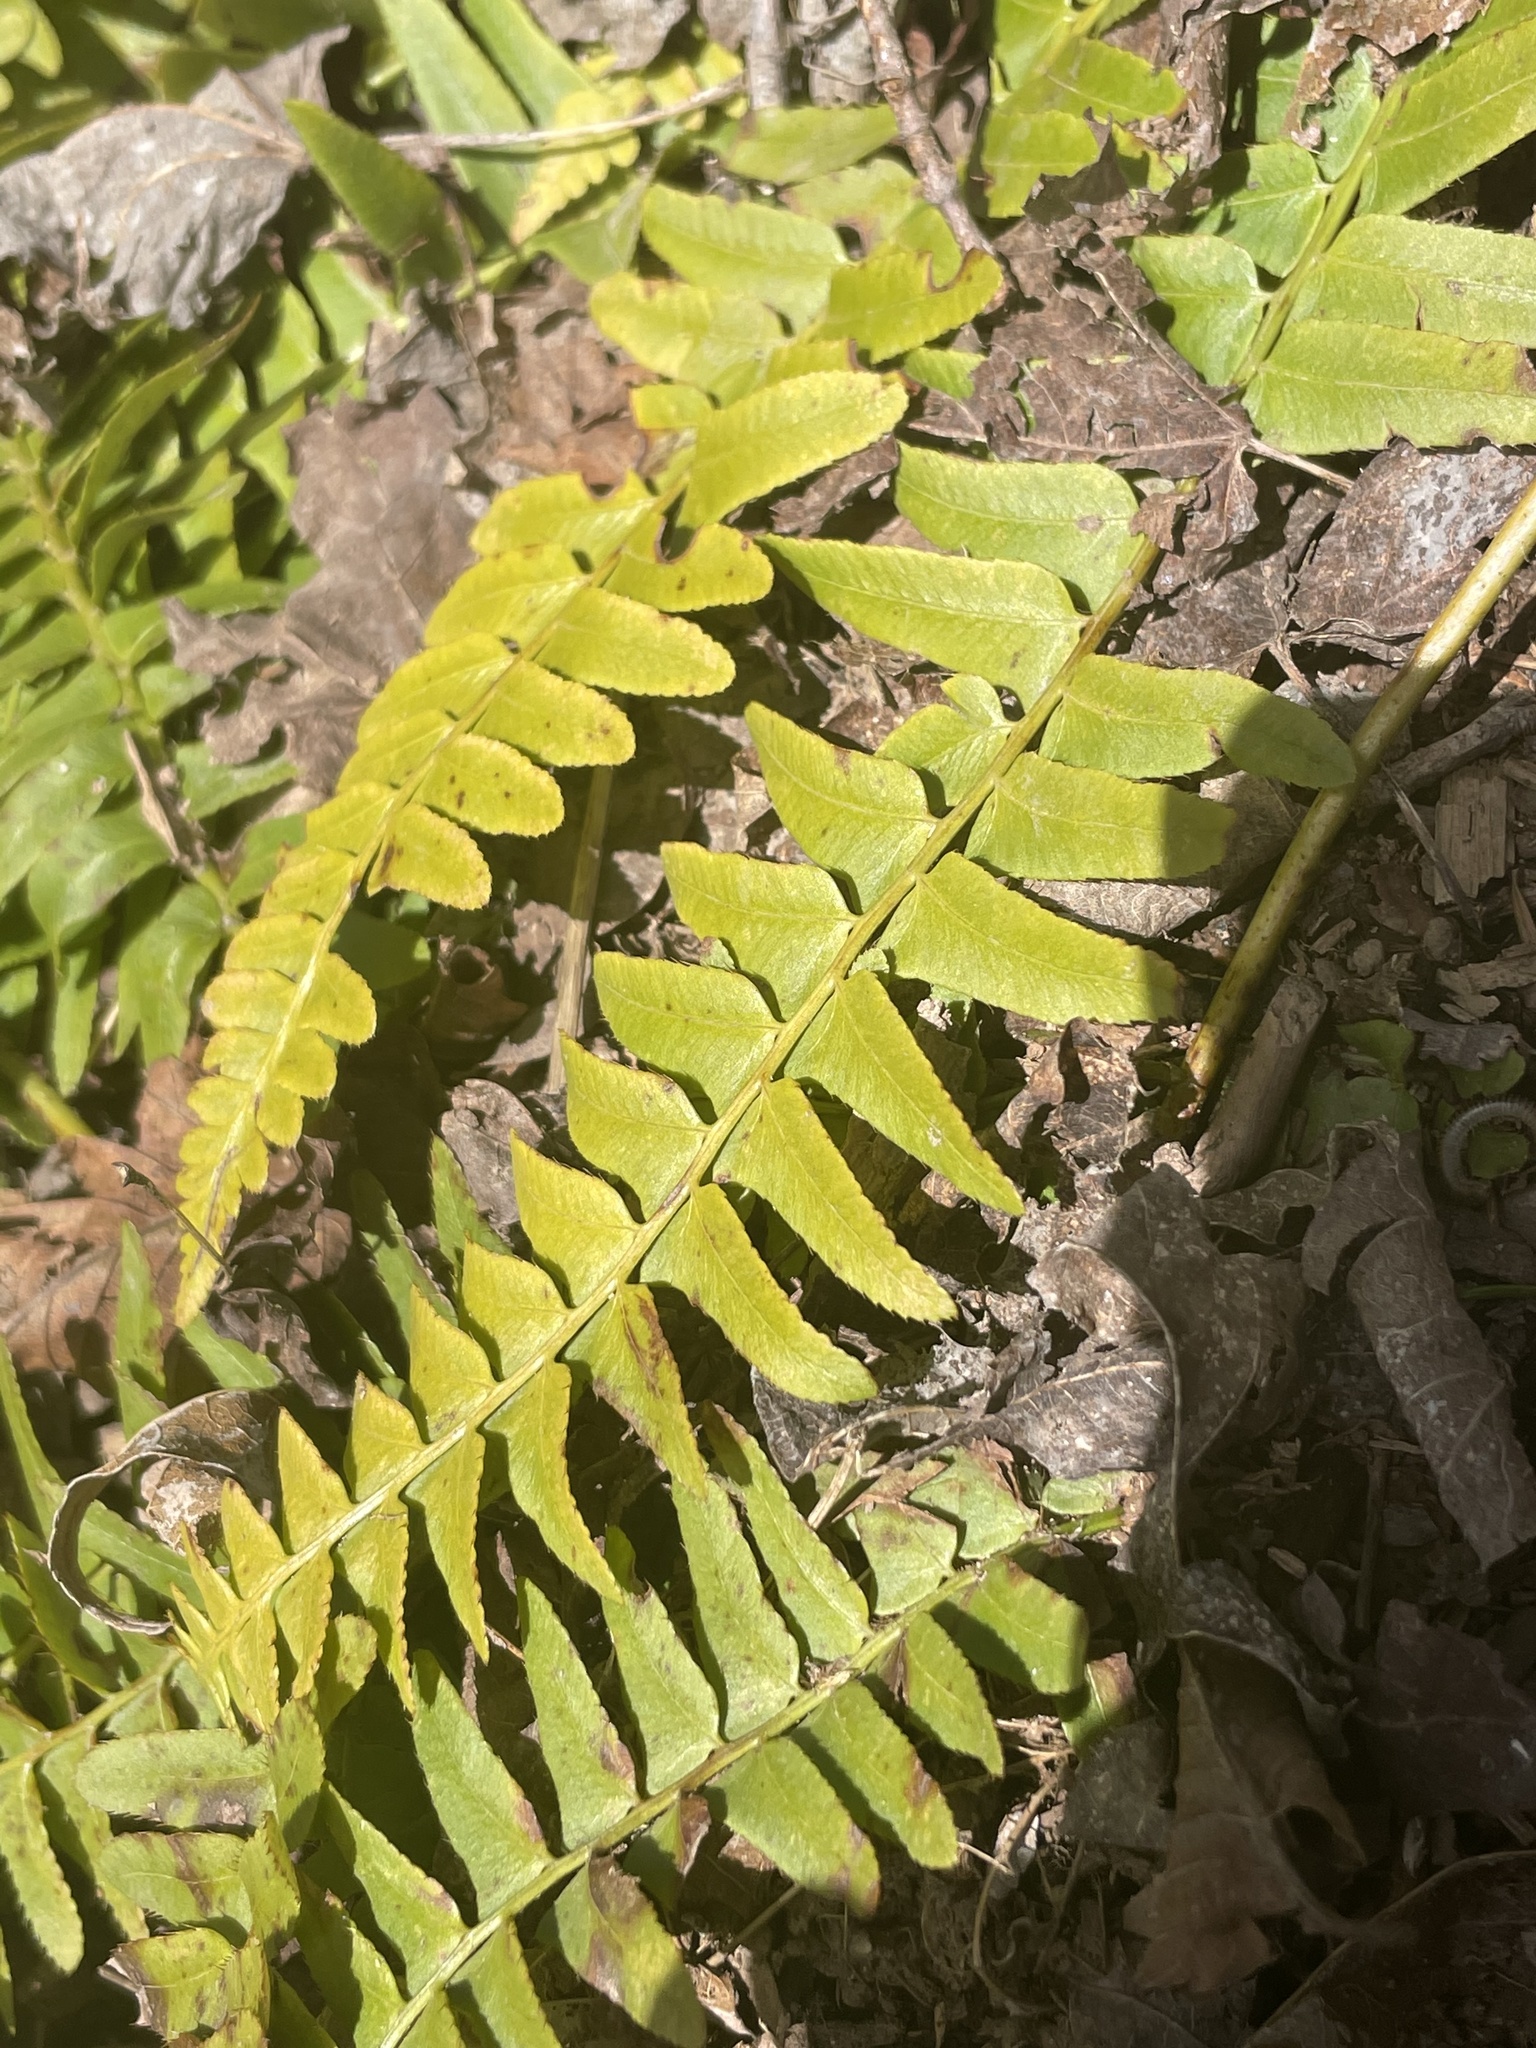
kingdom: Plantae
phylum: Tracheophyta
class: Polypodiopsida
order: Polypodiales
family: Dryopteridaceae
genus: Polystichum
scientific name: Polystichum acrostichoides
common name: Christmas fern
